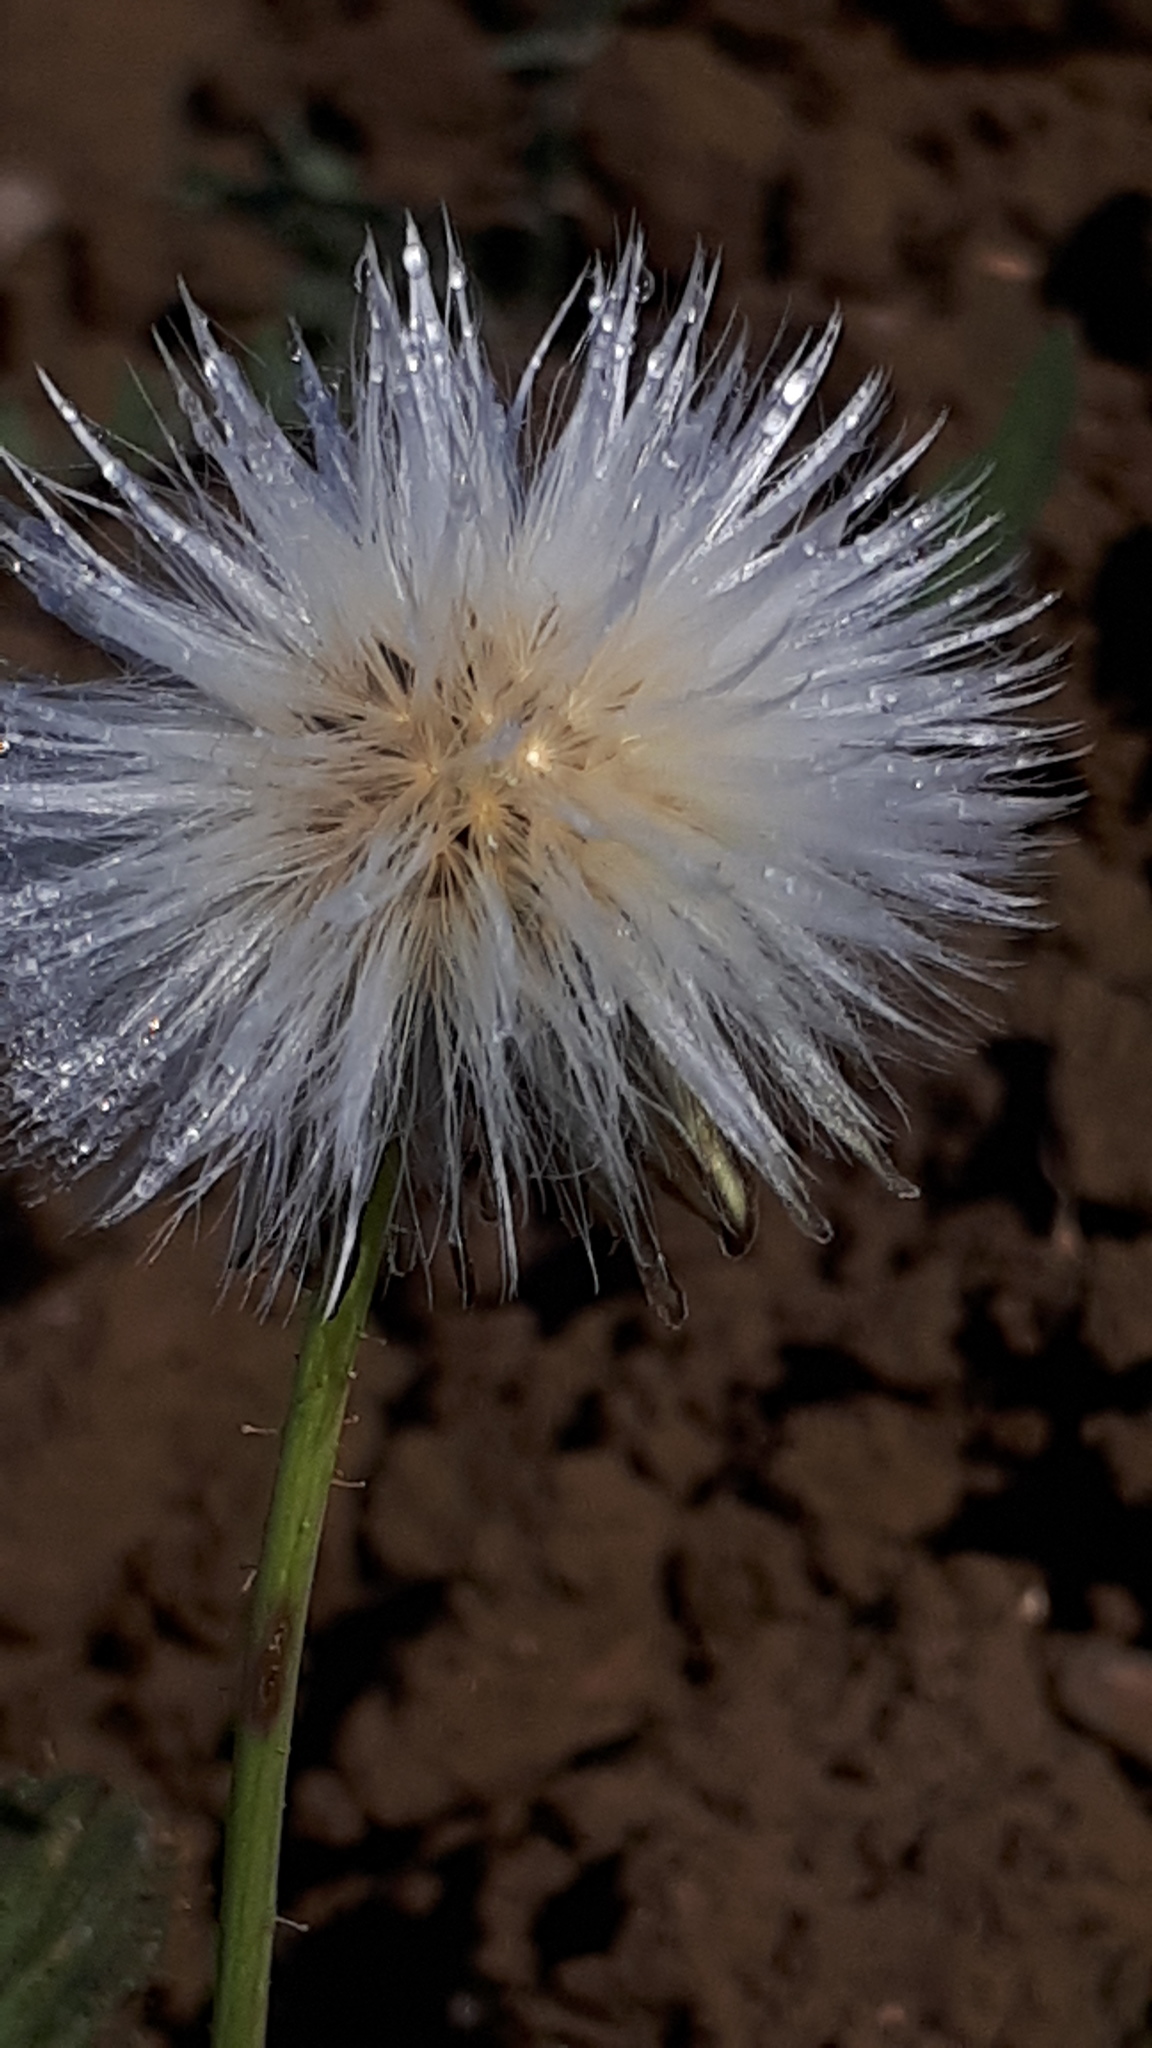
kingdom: Plantae
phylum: Tracheophyta
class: Magnoliopsida
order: Asterales
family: Asteraceae
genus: Sonchus
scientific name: Sonchus arvensis
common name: Perennial sow-thistle
